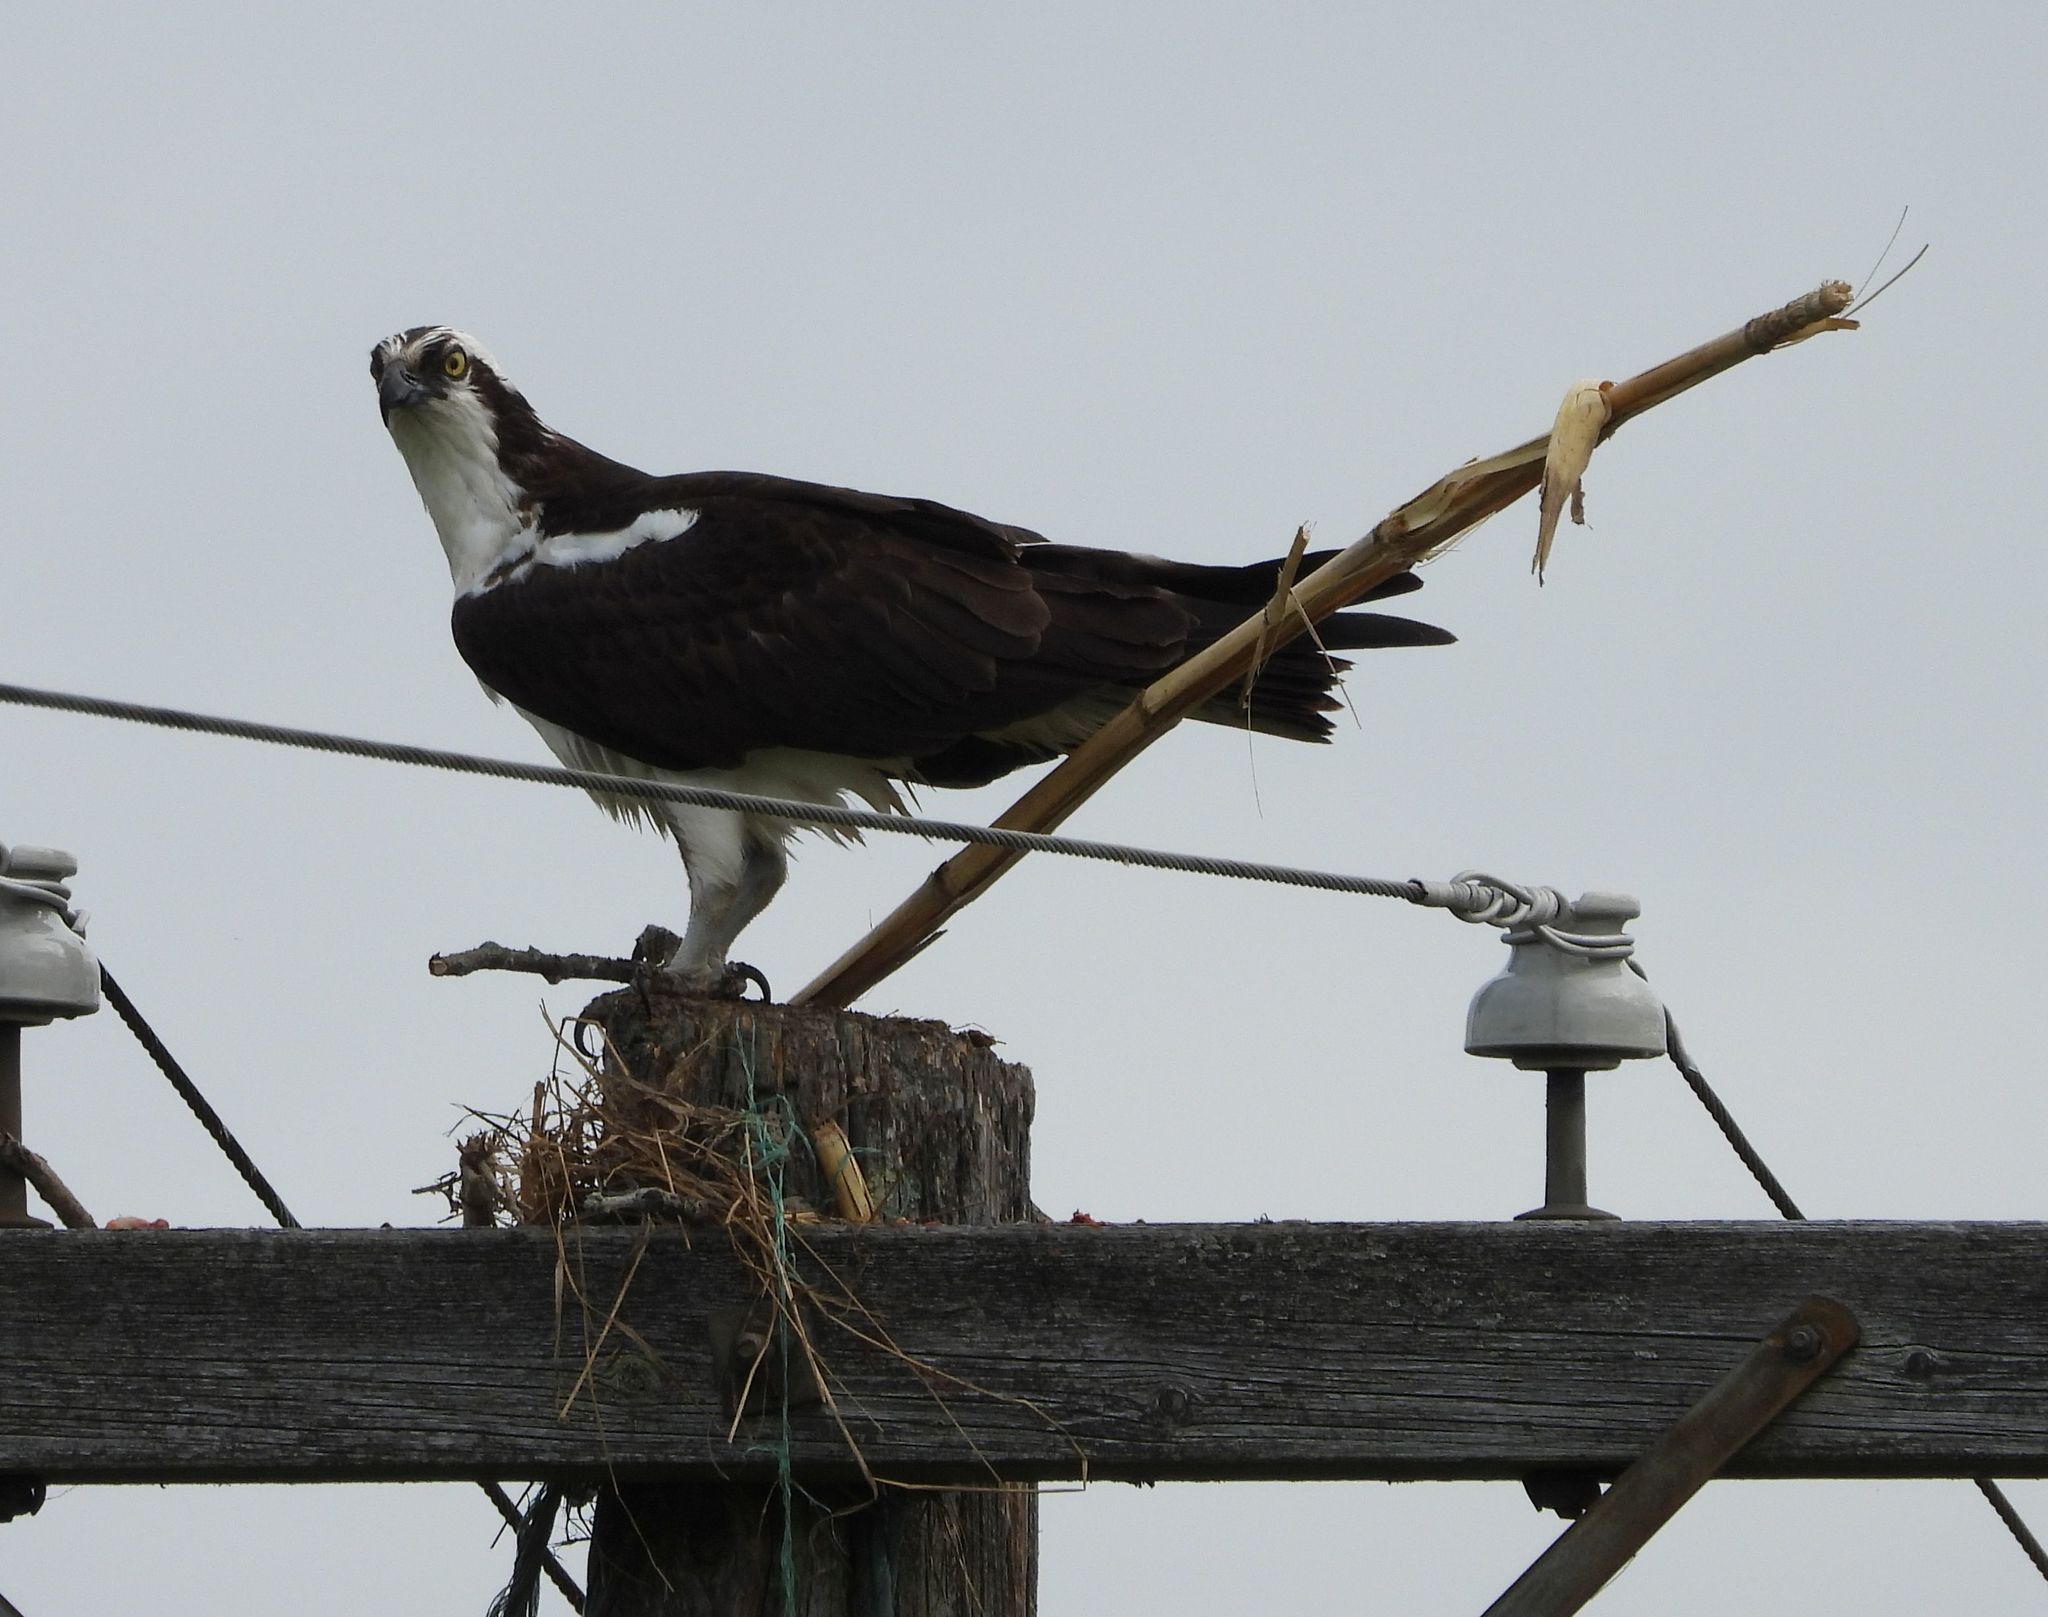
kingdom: Animalia
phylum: Chordata
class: Aves
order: Accipitriformes
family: Pandionidae
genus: Pandion
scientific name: Pandion haliaetus
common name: Osprey
